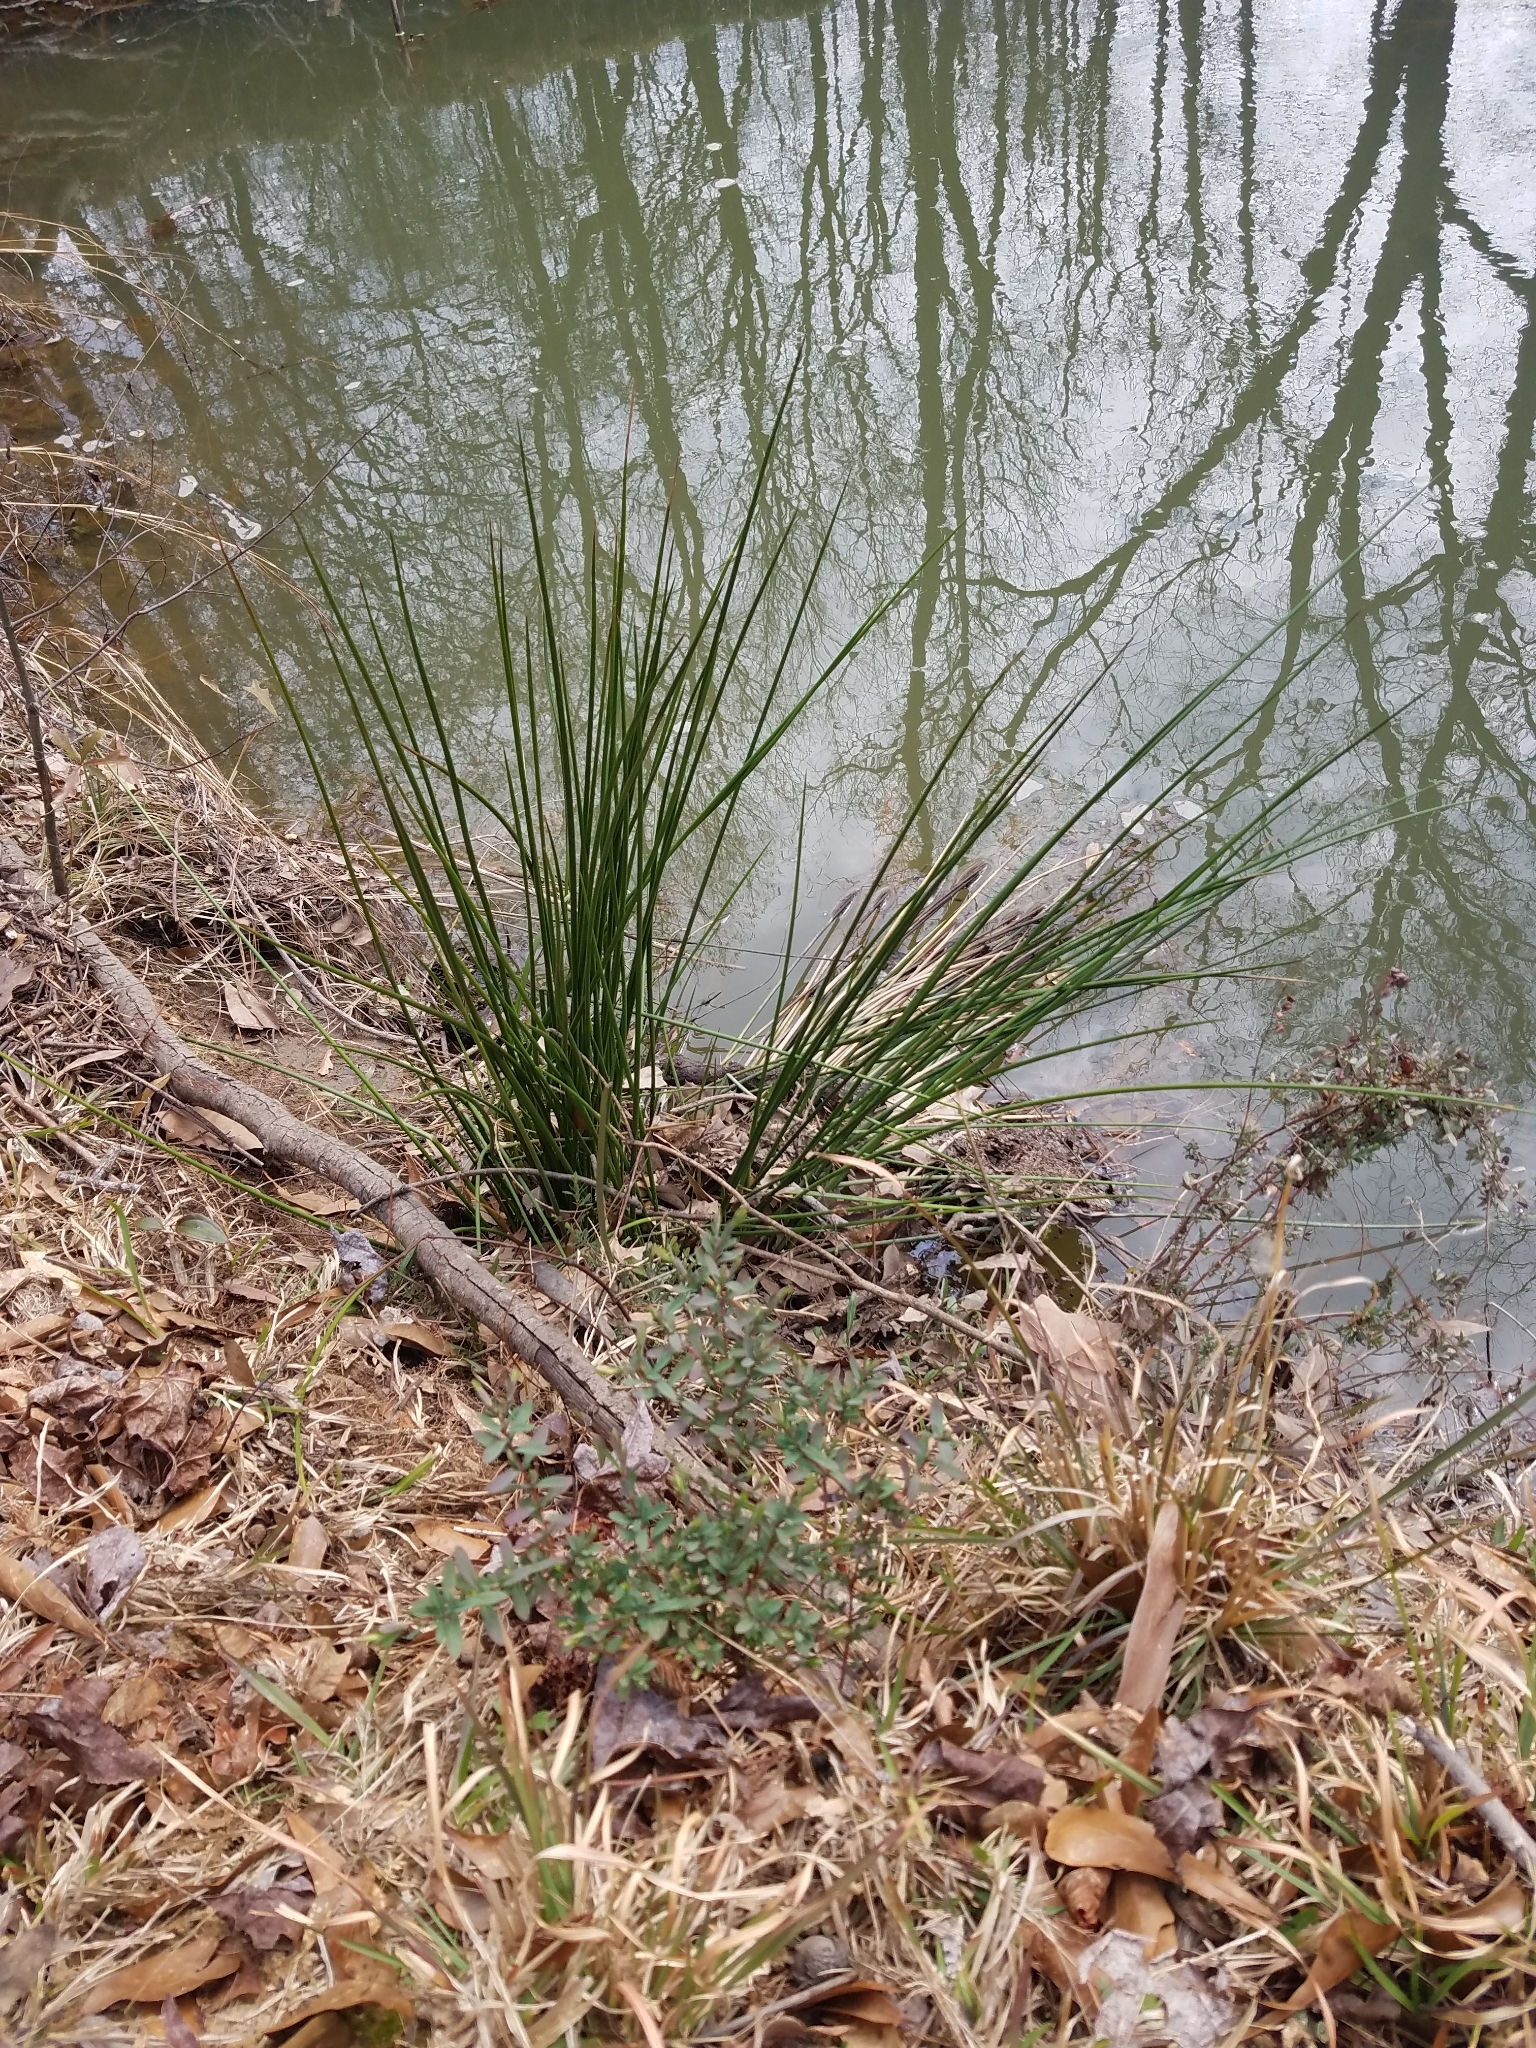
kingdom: Plantae
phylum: Tracheophyta
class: Liliopsida
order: Poales
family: Juncaceae
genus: Juncus
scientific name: Juncus effusus
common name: Soft rush
